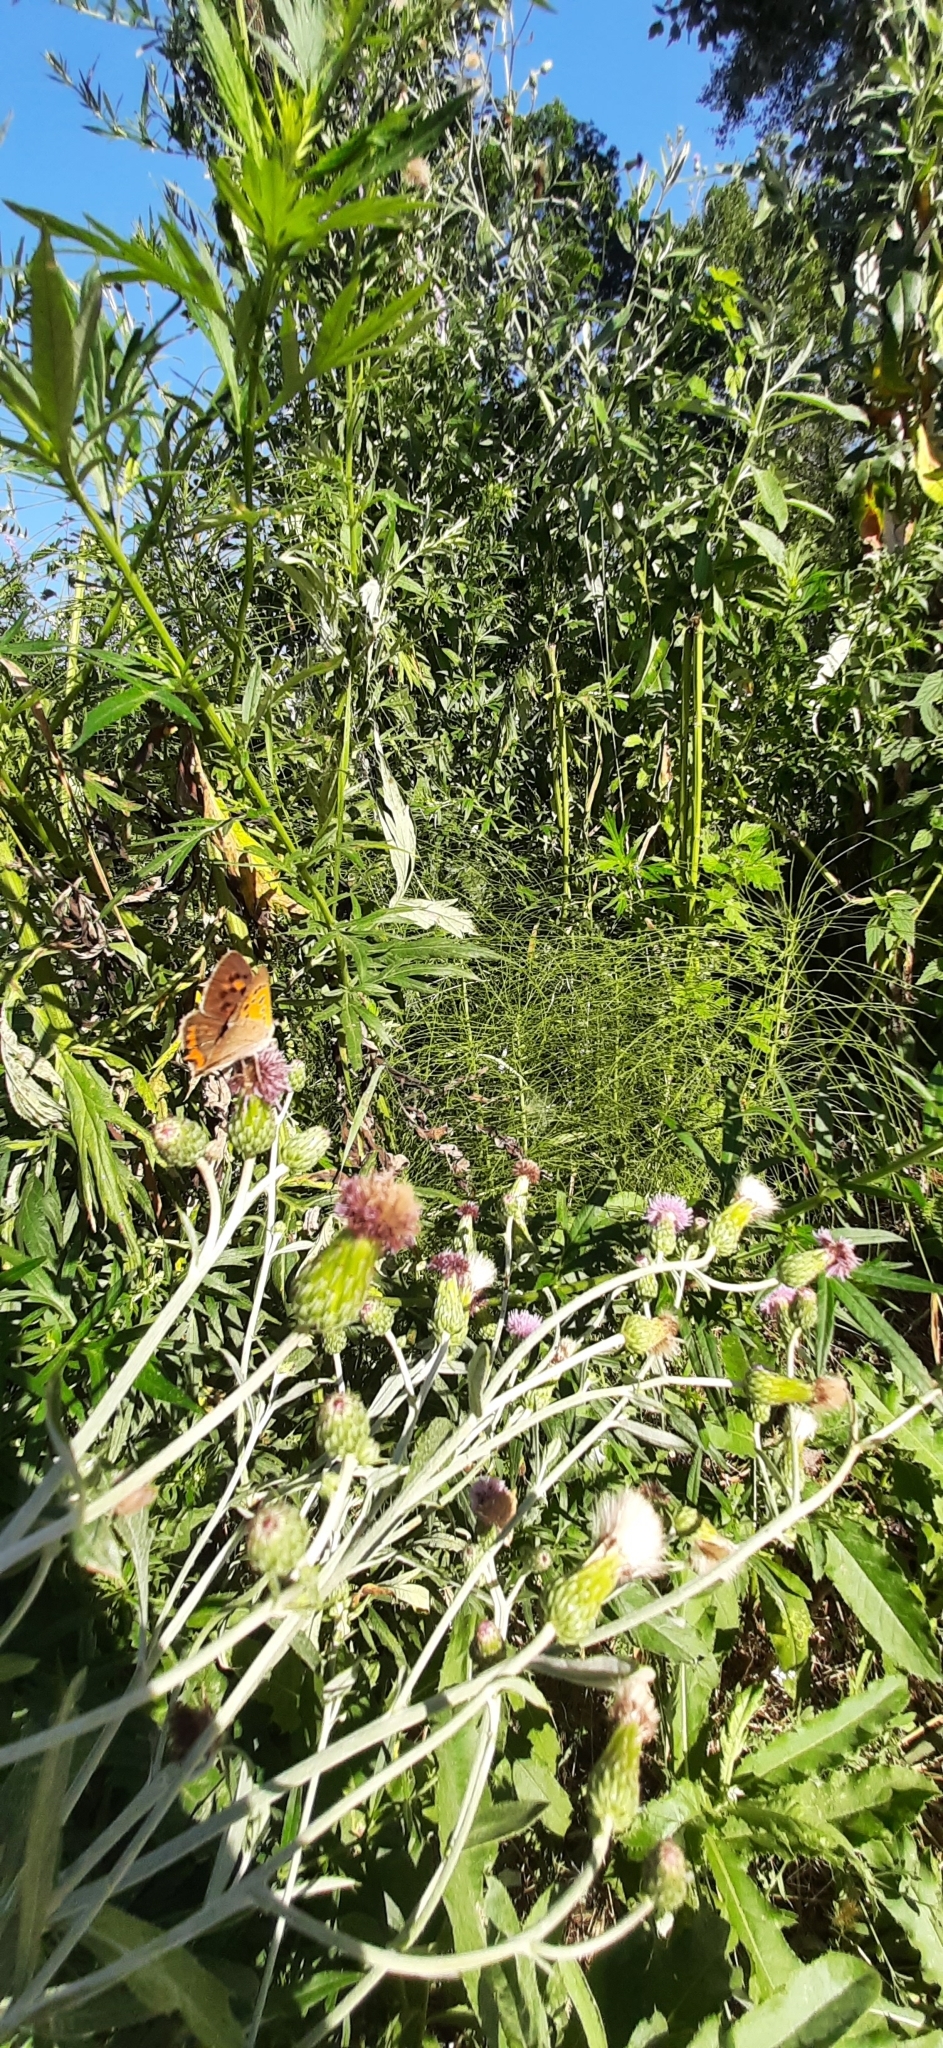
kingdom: Animalia
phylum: Arthropoda
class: Insecta
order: Lepidoptera
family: Lycaenidae
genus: Lycaena
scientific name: Lycaena phlaeas
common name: Small copper
